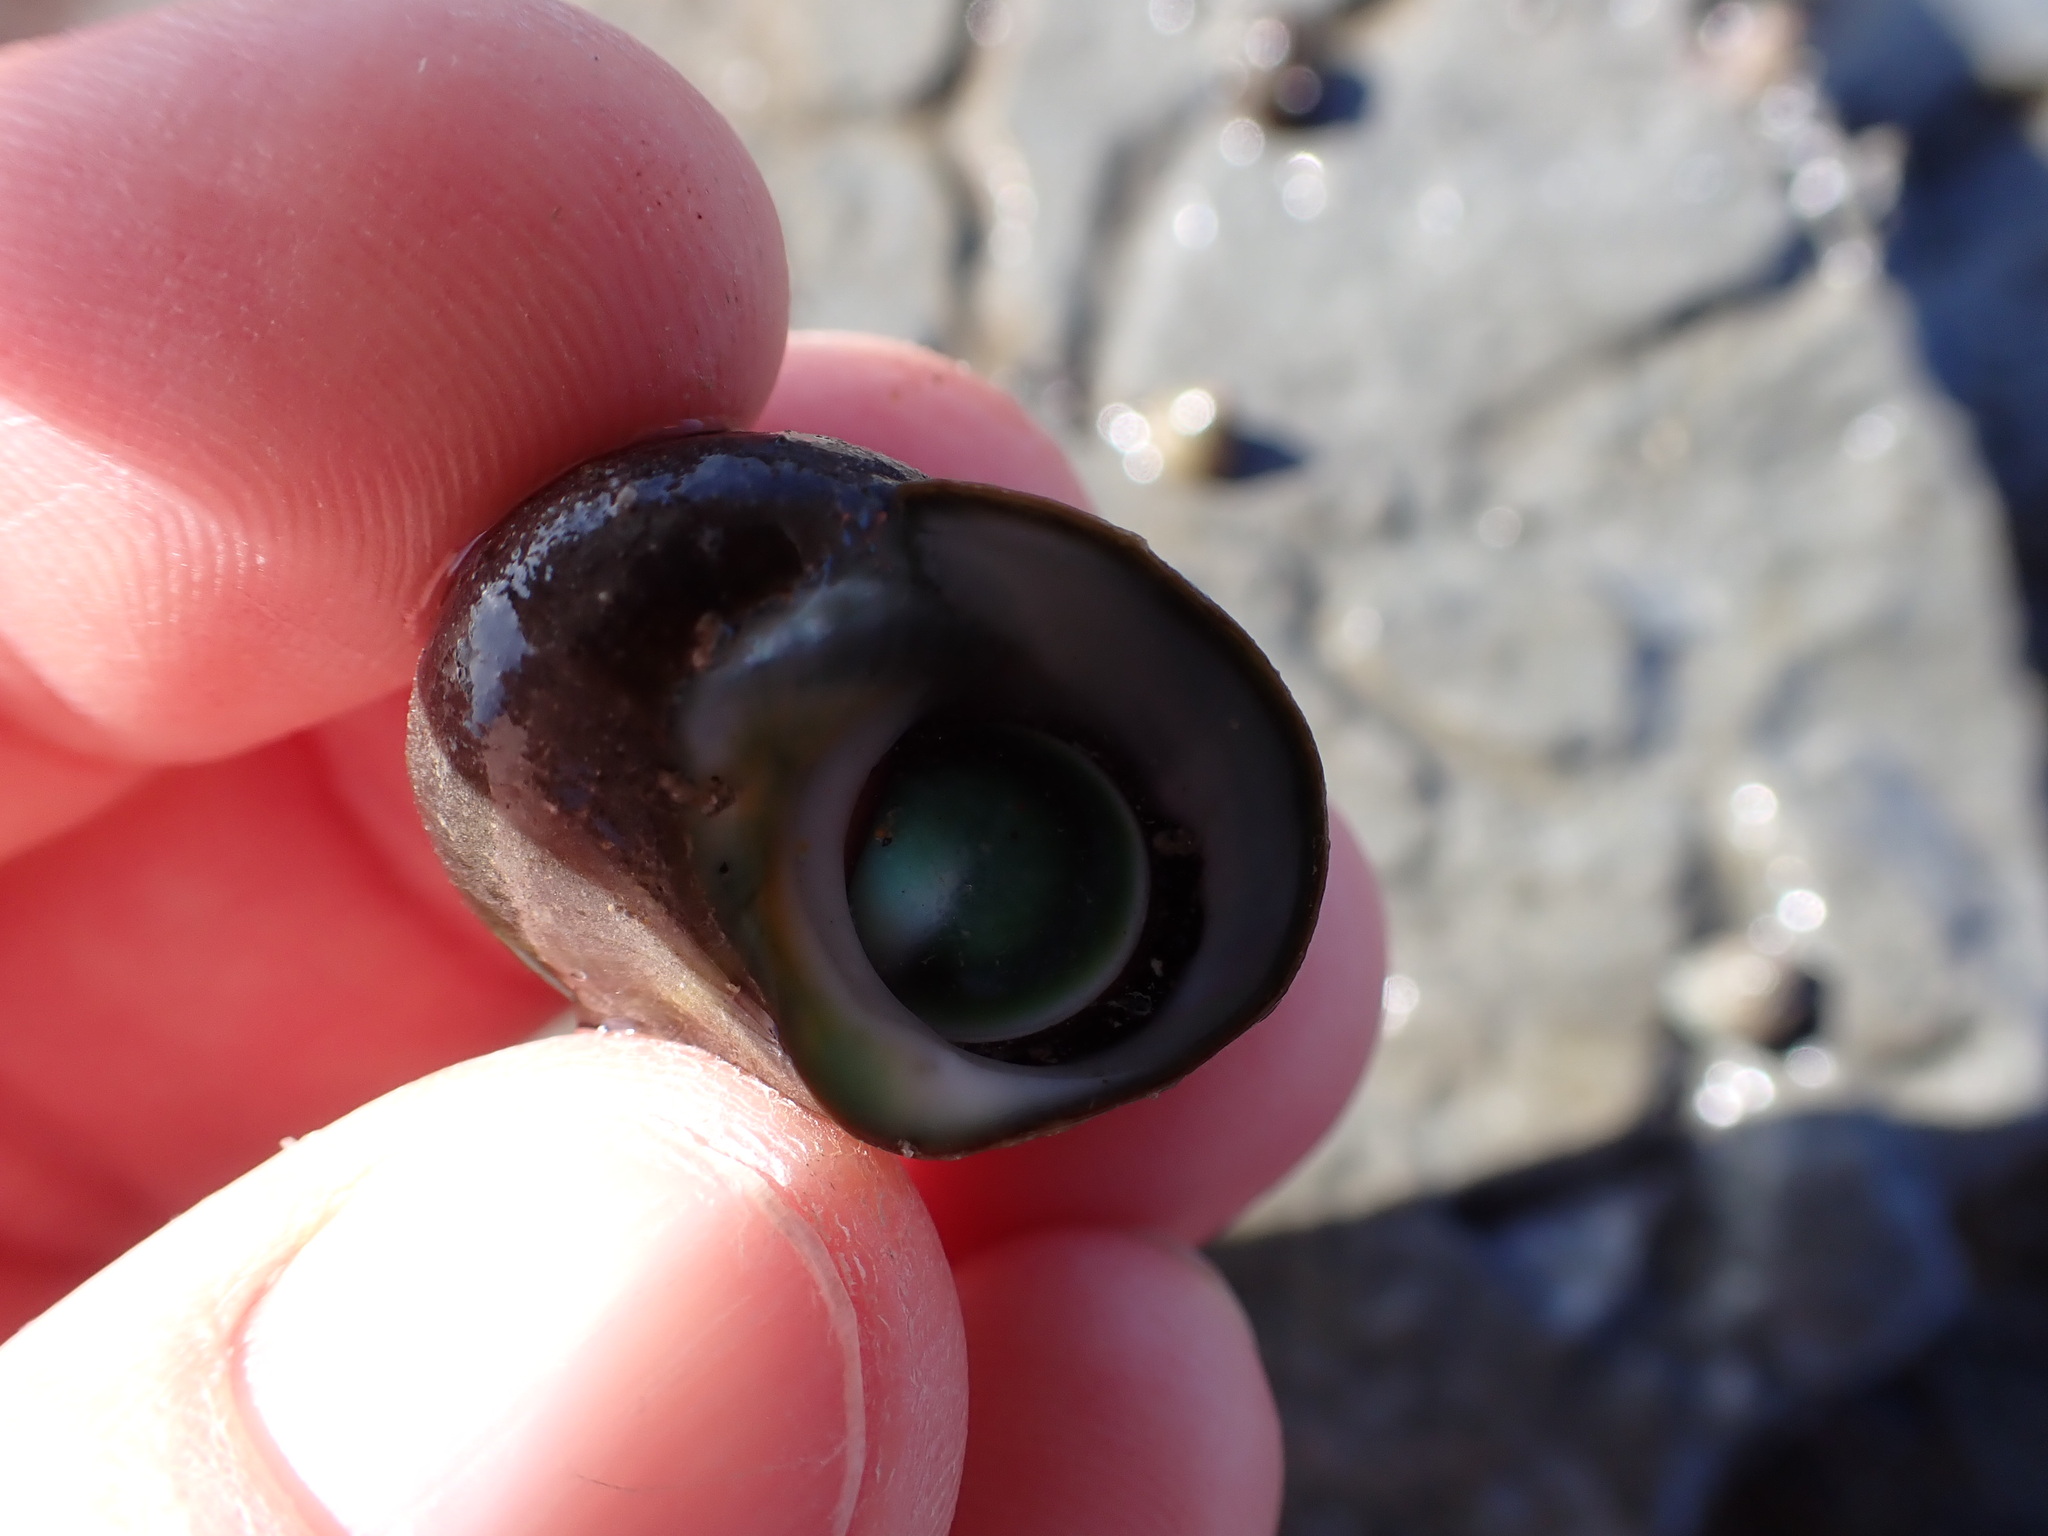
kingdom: Animalia
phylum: Mollusca
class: Gastropoda
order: Trochida
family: Turbinidae
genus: Lunella
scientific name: Lunella smaragda
